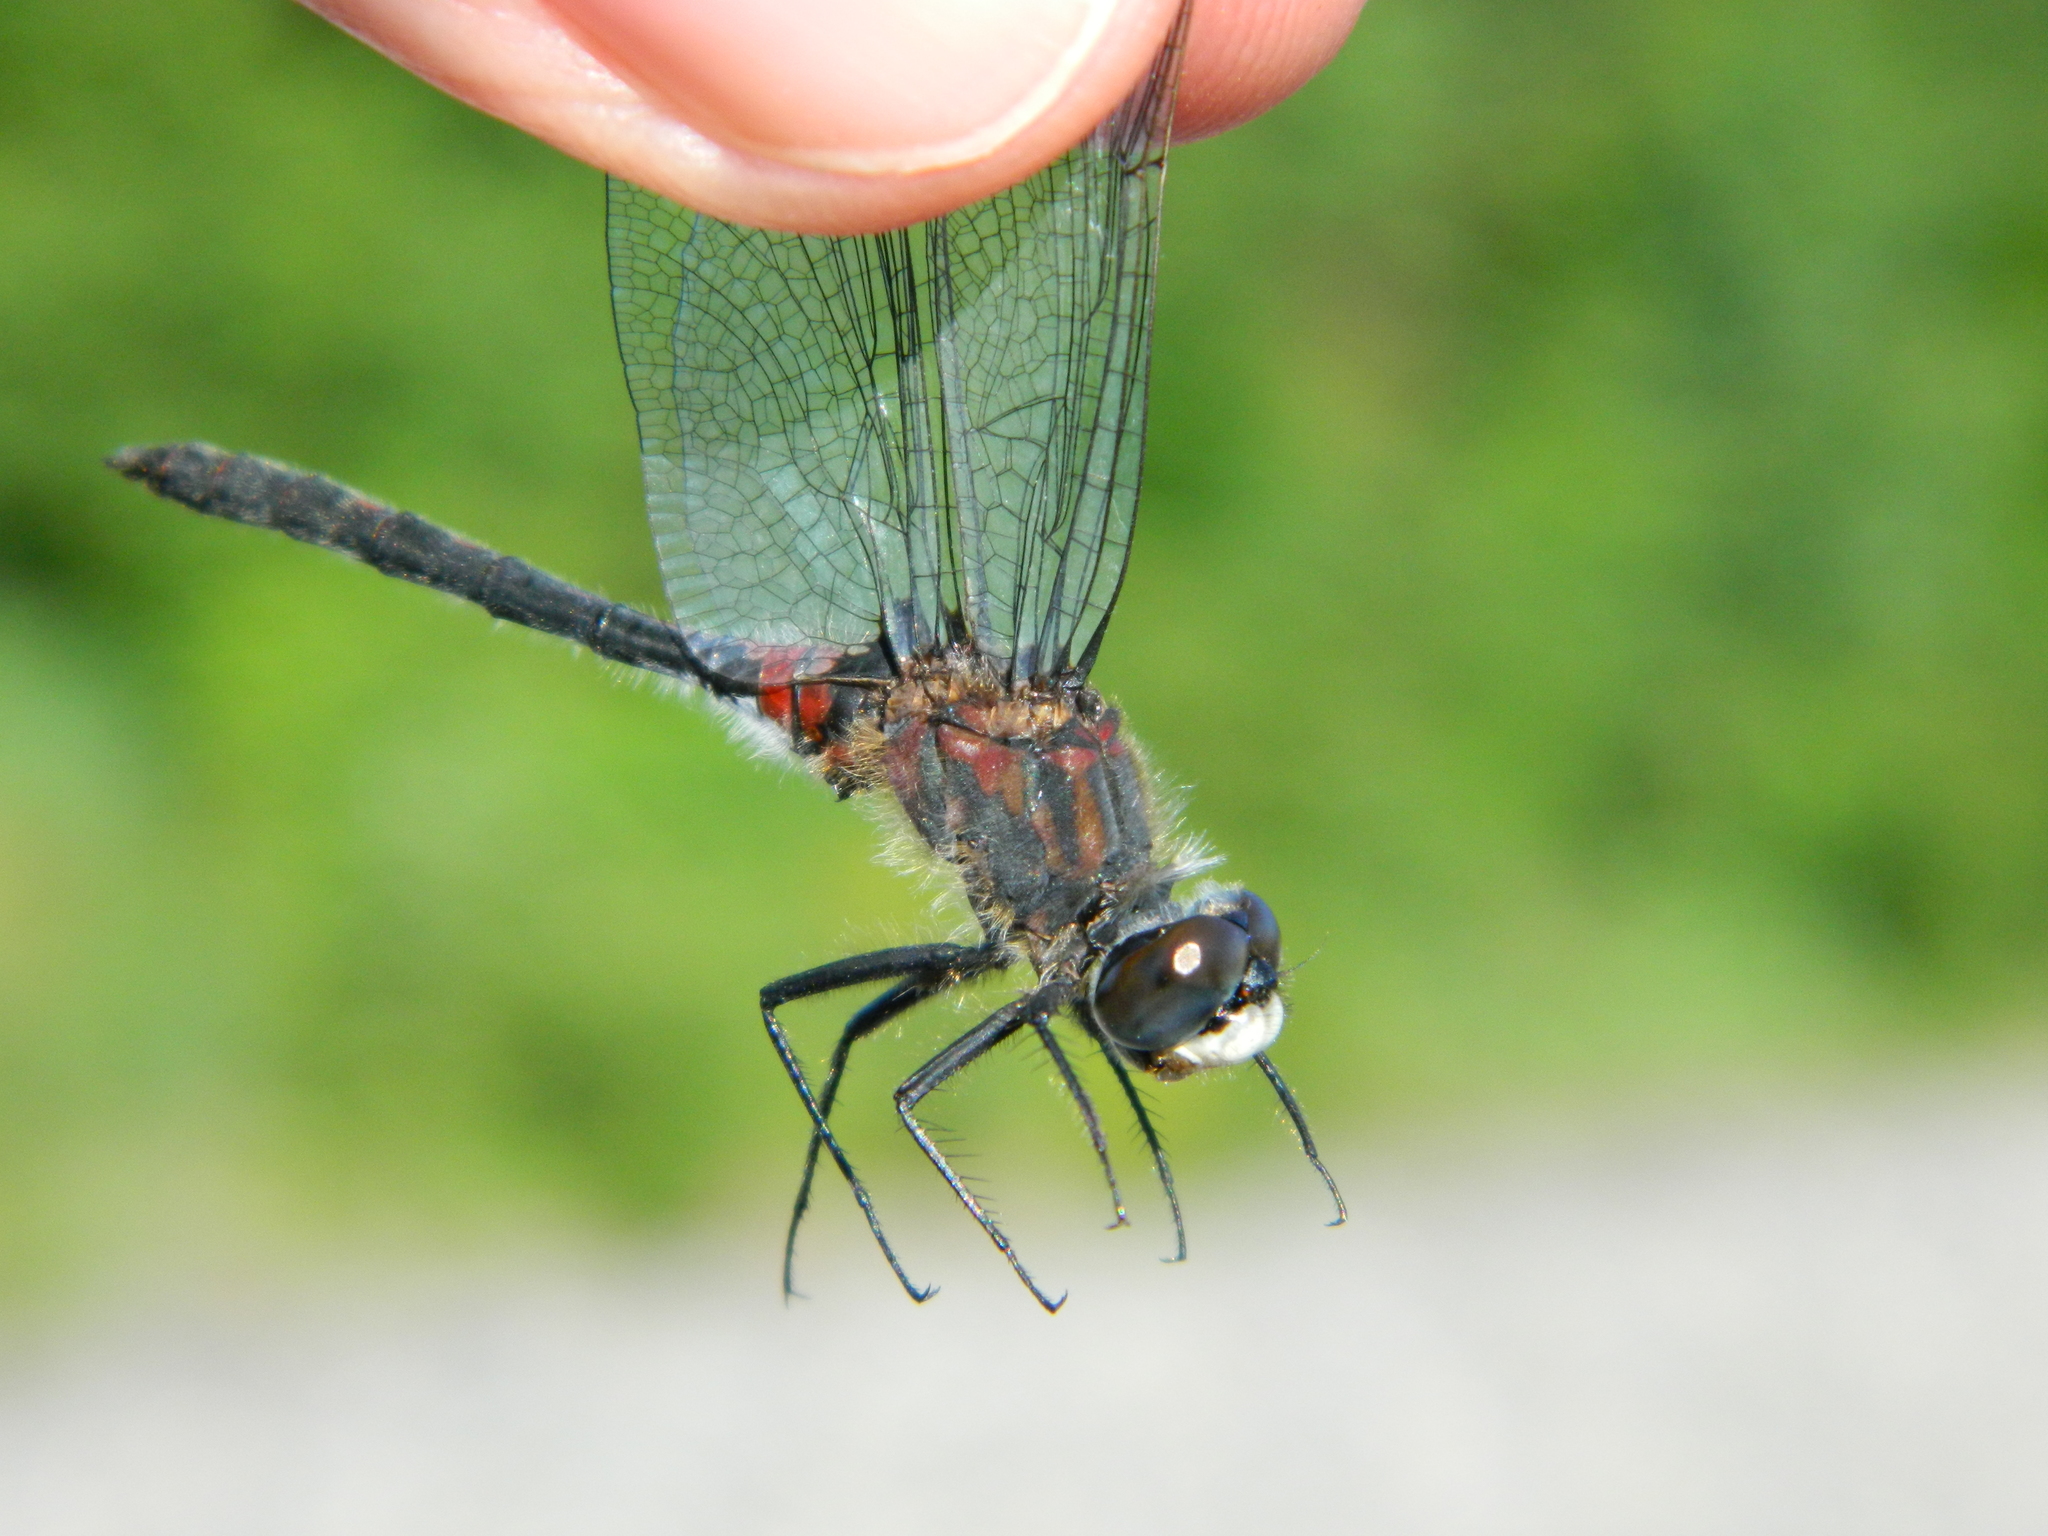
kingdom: Animalia
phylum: Arthropoda
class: Insecta
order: Odonata
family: Libellulidae
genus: Leucorrhinia
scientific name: Leucorrhinia glacialis
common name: Crimson-ringed whiteface
